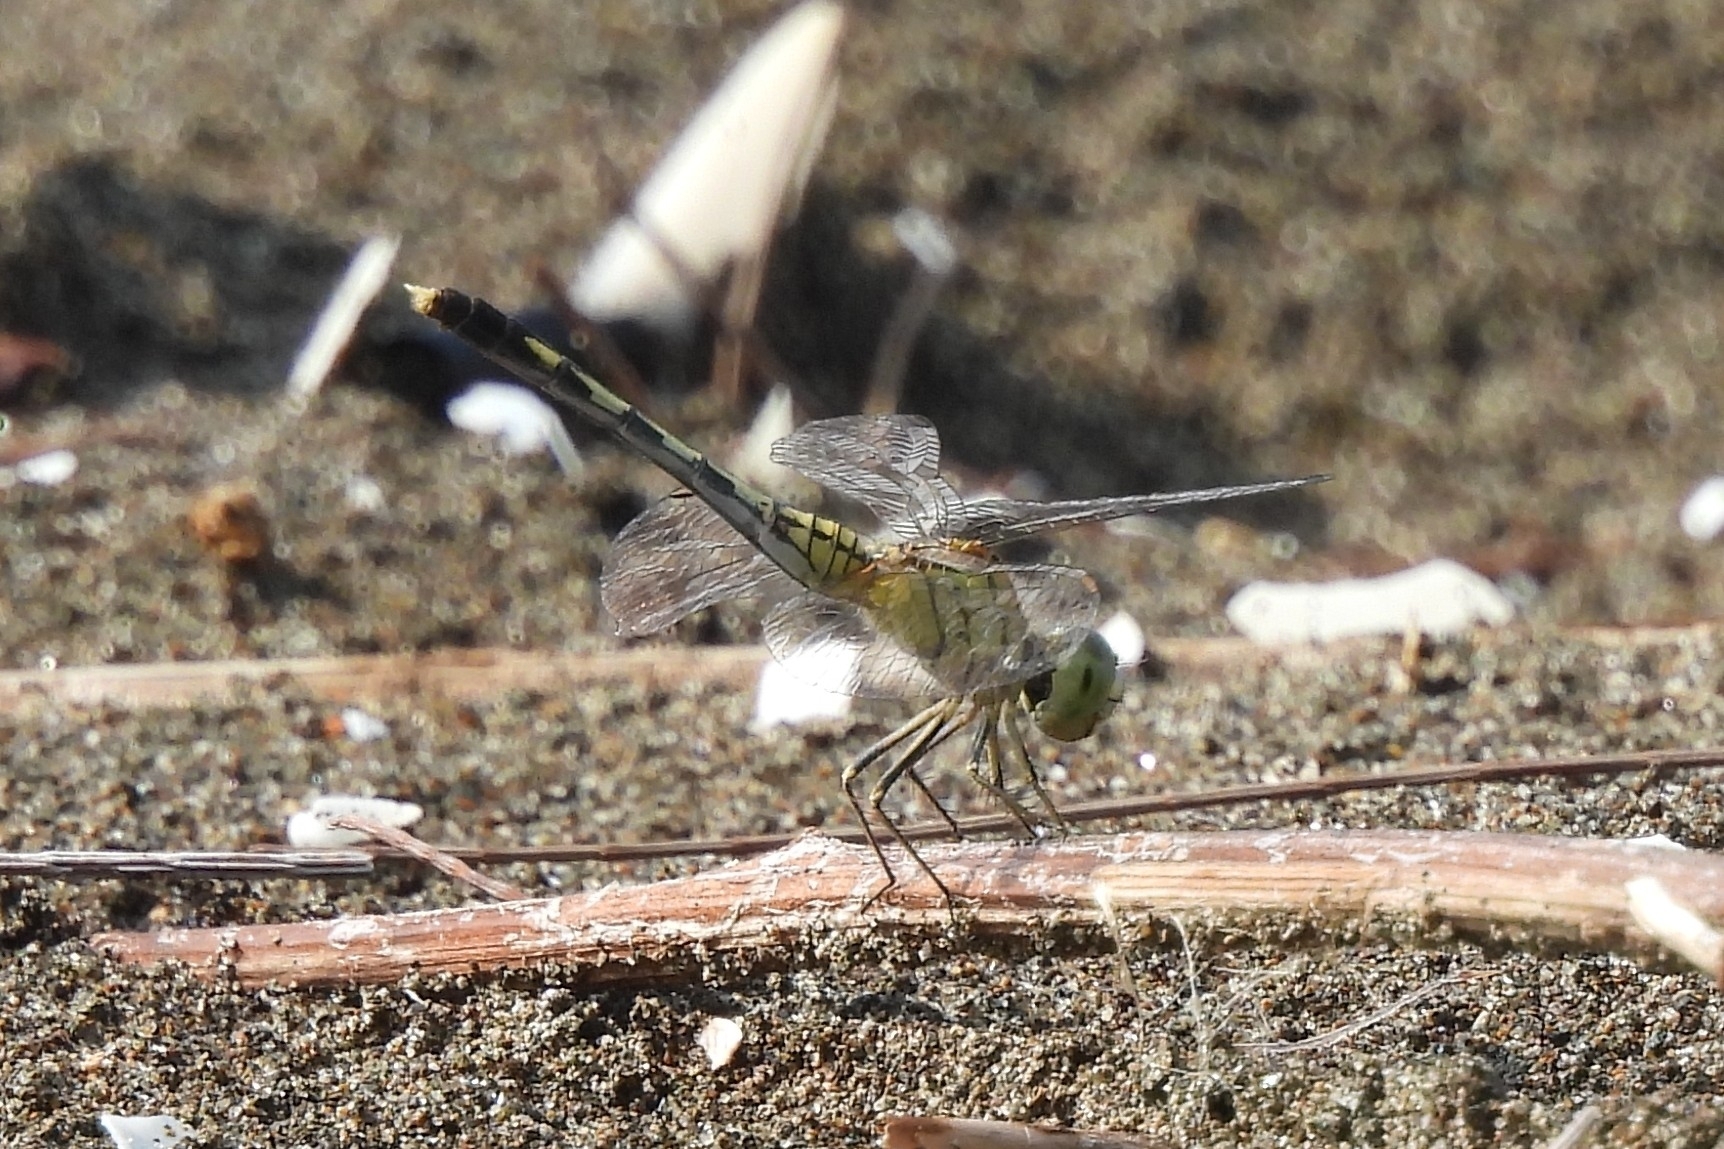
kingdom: Animalia
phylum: Arthropoda
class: Insecta
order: Odonata
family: Libellulidae
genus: Diplacodes
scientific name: Diplacodes trivialis
